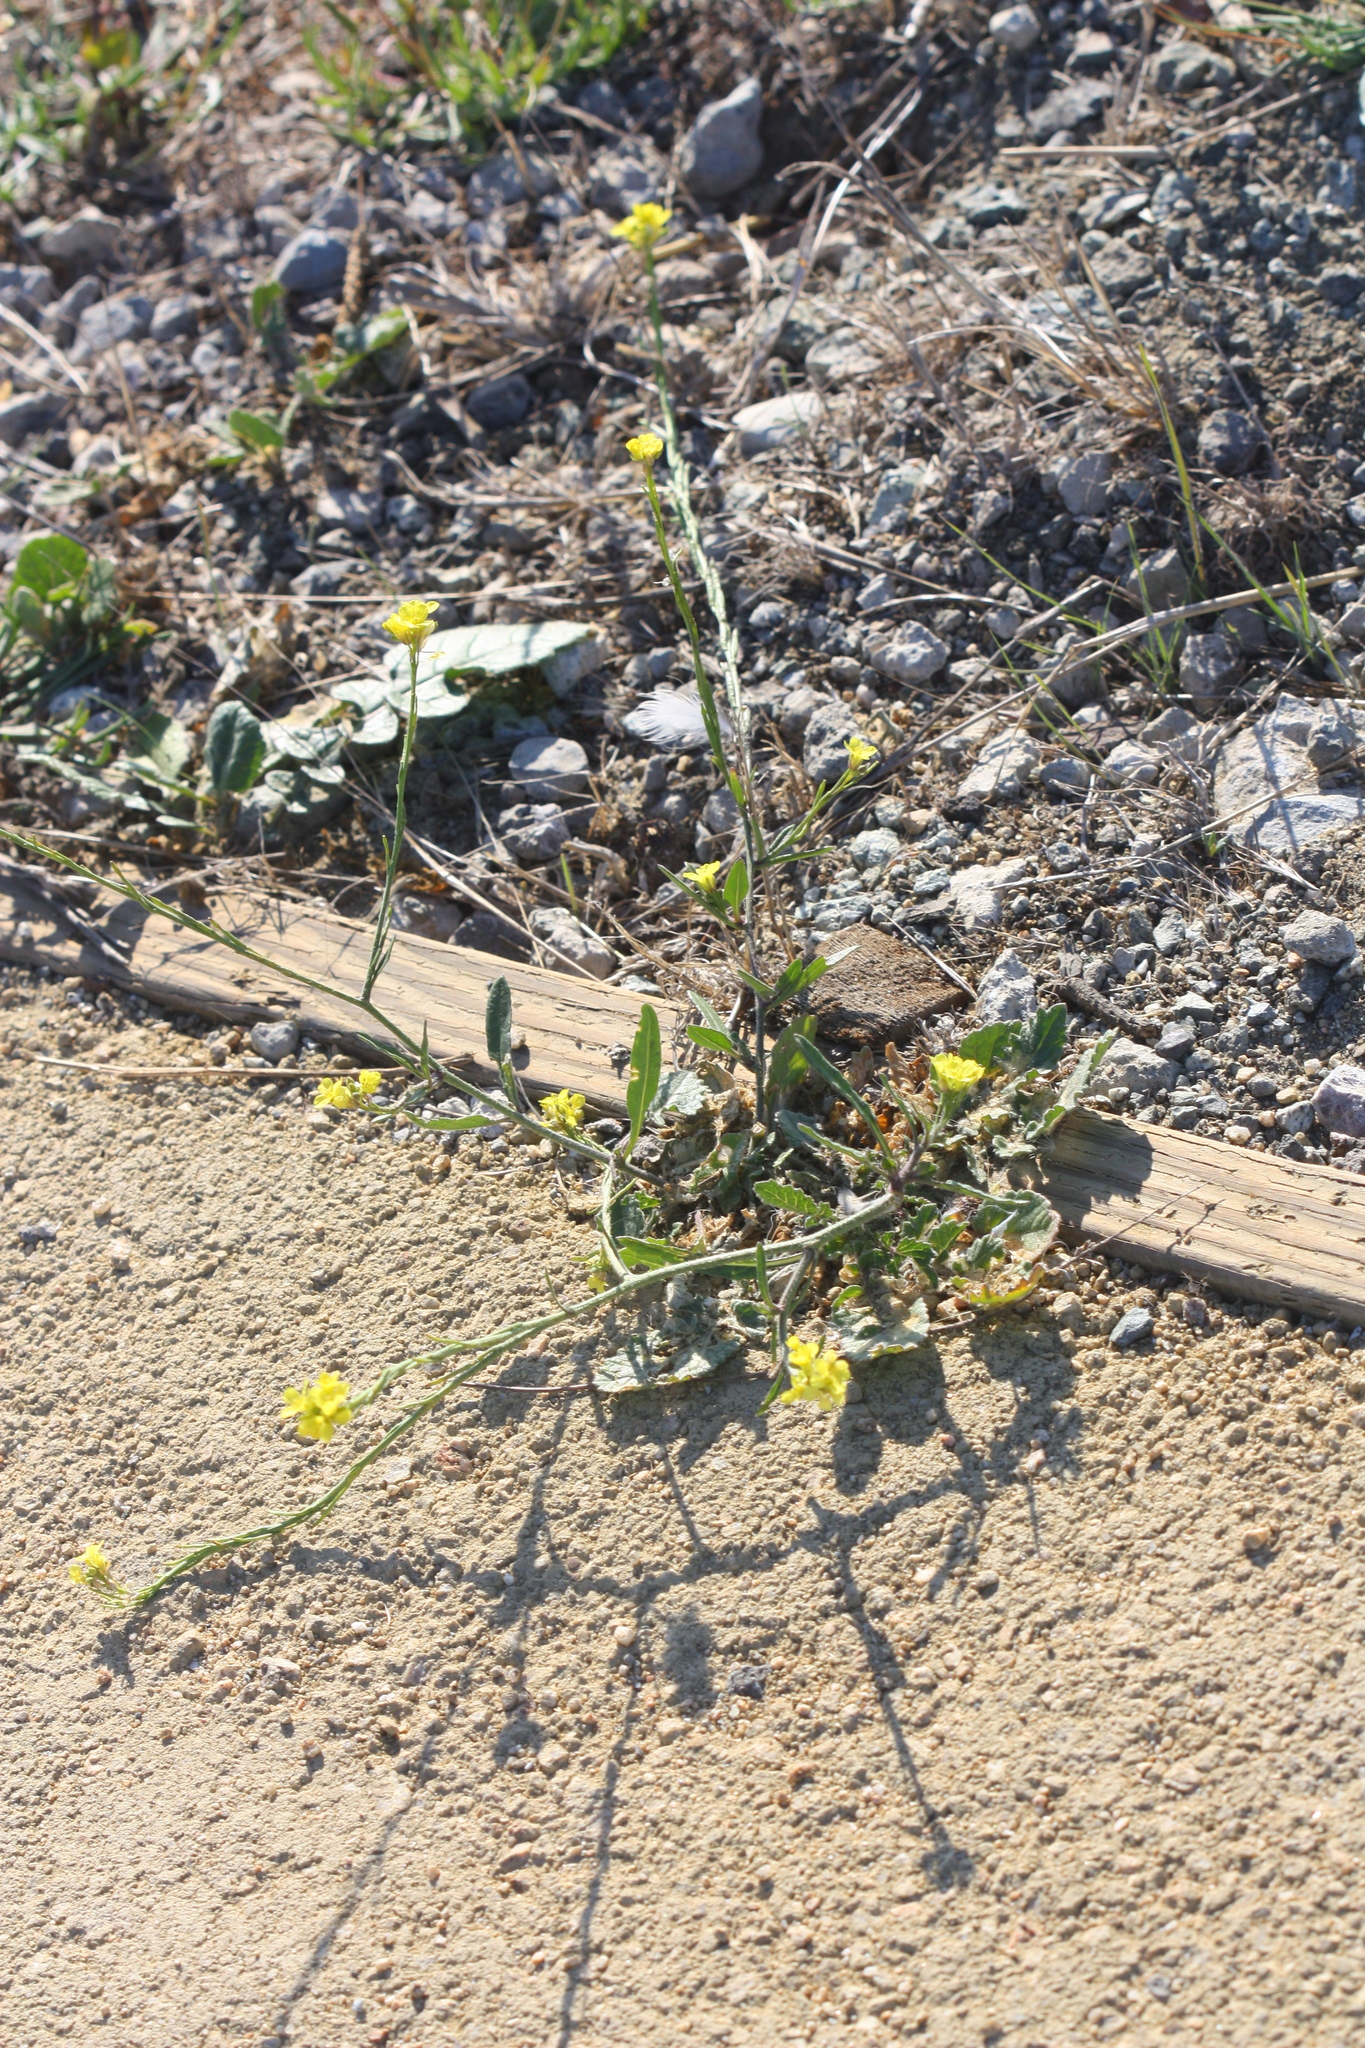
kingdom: Plantae
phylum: Tracheophyta
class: Magnoliopsida
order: Brassicales
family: Brassicaceae
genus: Hirschfeldia
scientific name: Hirschfeldia incana
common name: Hoary mustard
